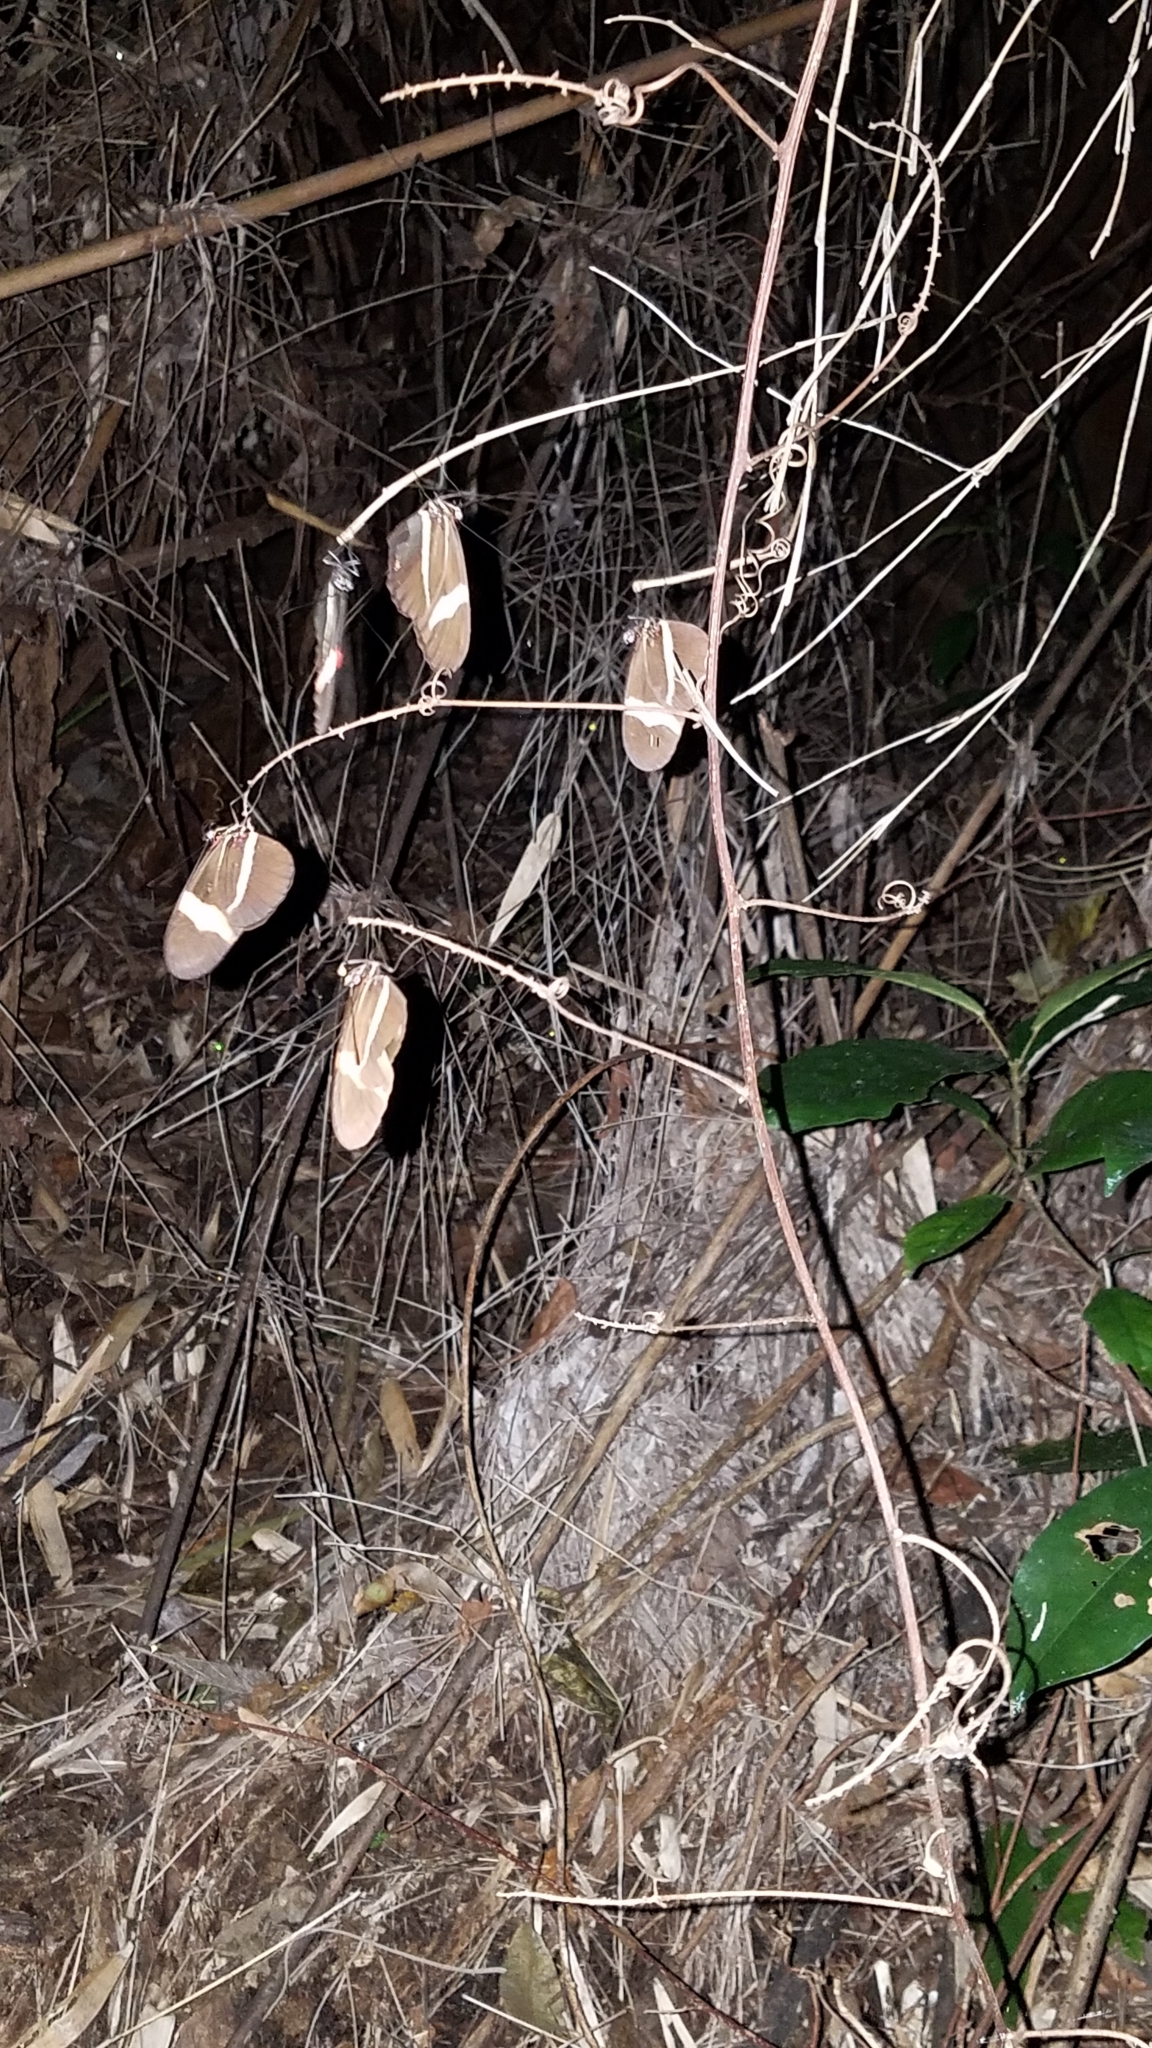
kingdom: Animalia
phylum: Arthropoda
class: Insecta
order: Lepidoptera
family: Nymphalidae
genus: Tirumala
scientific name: Tirumala petiverana
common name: Blue monarch
